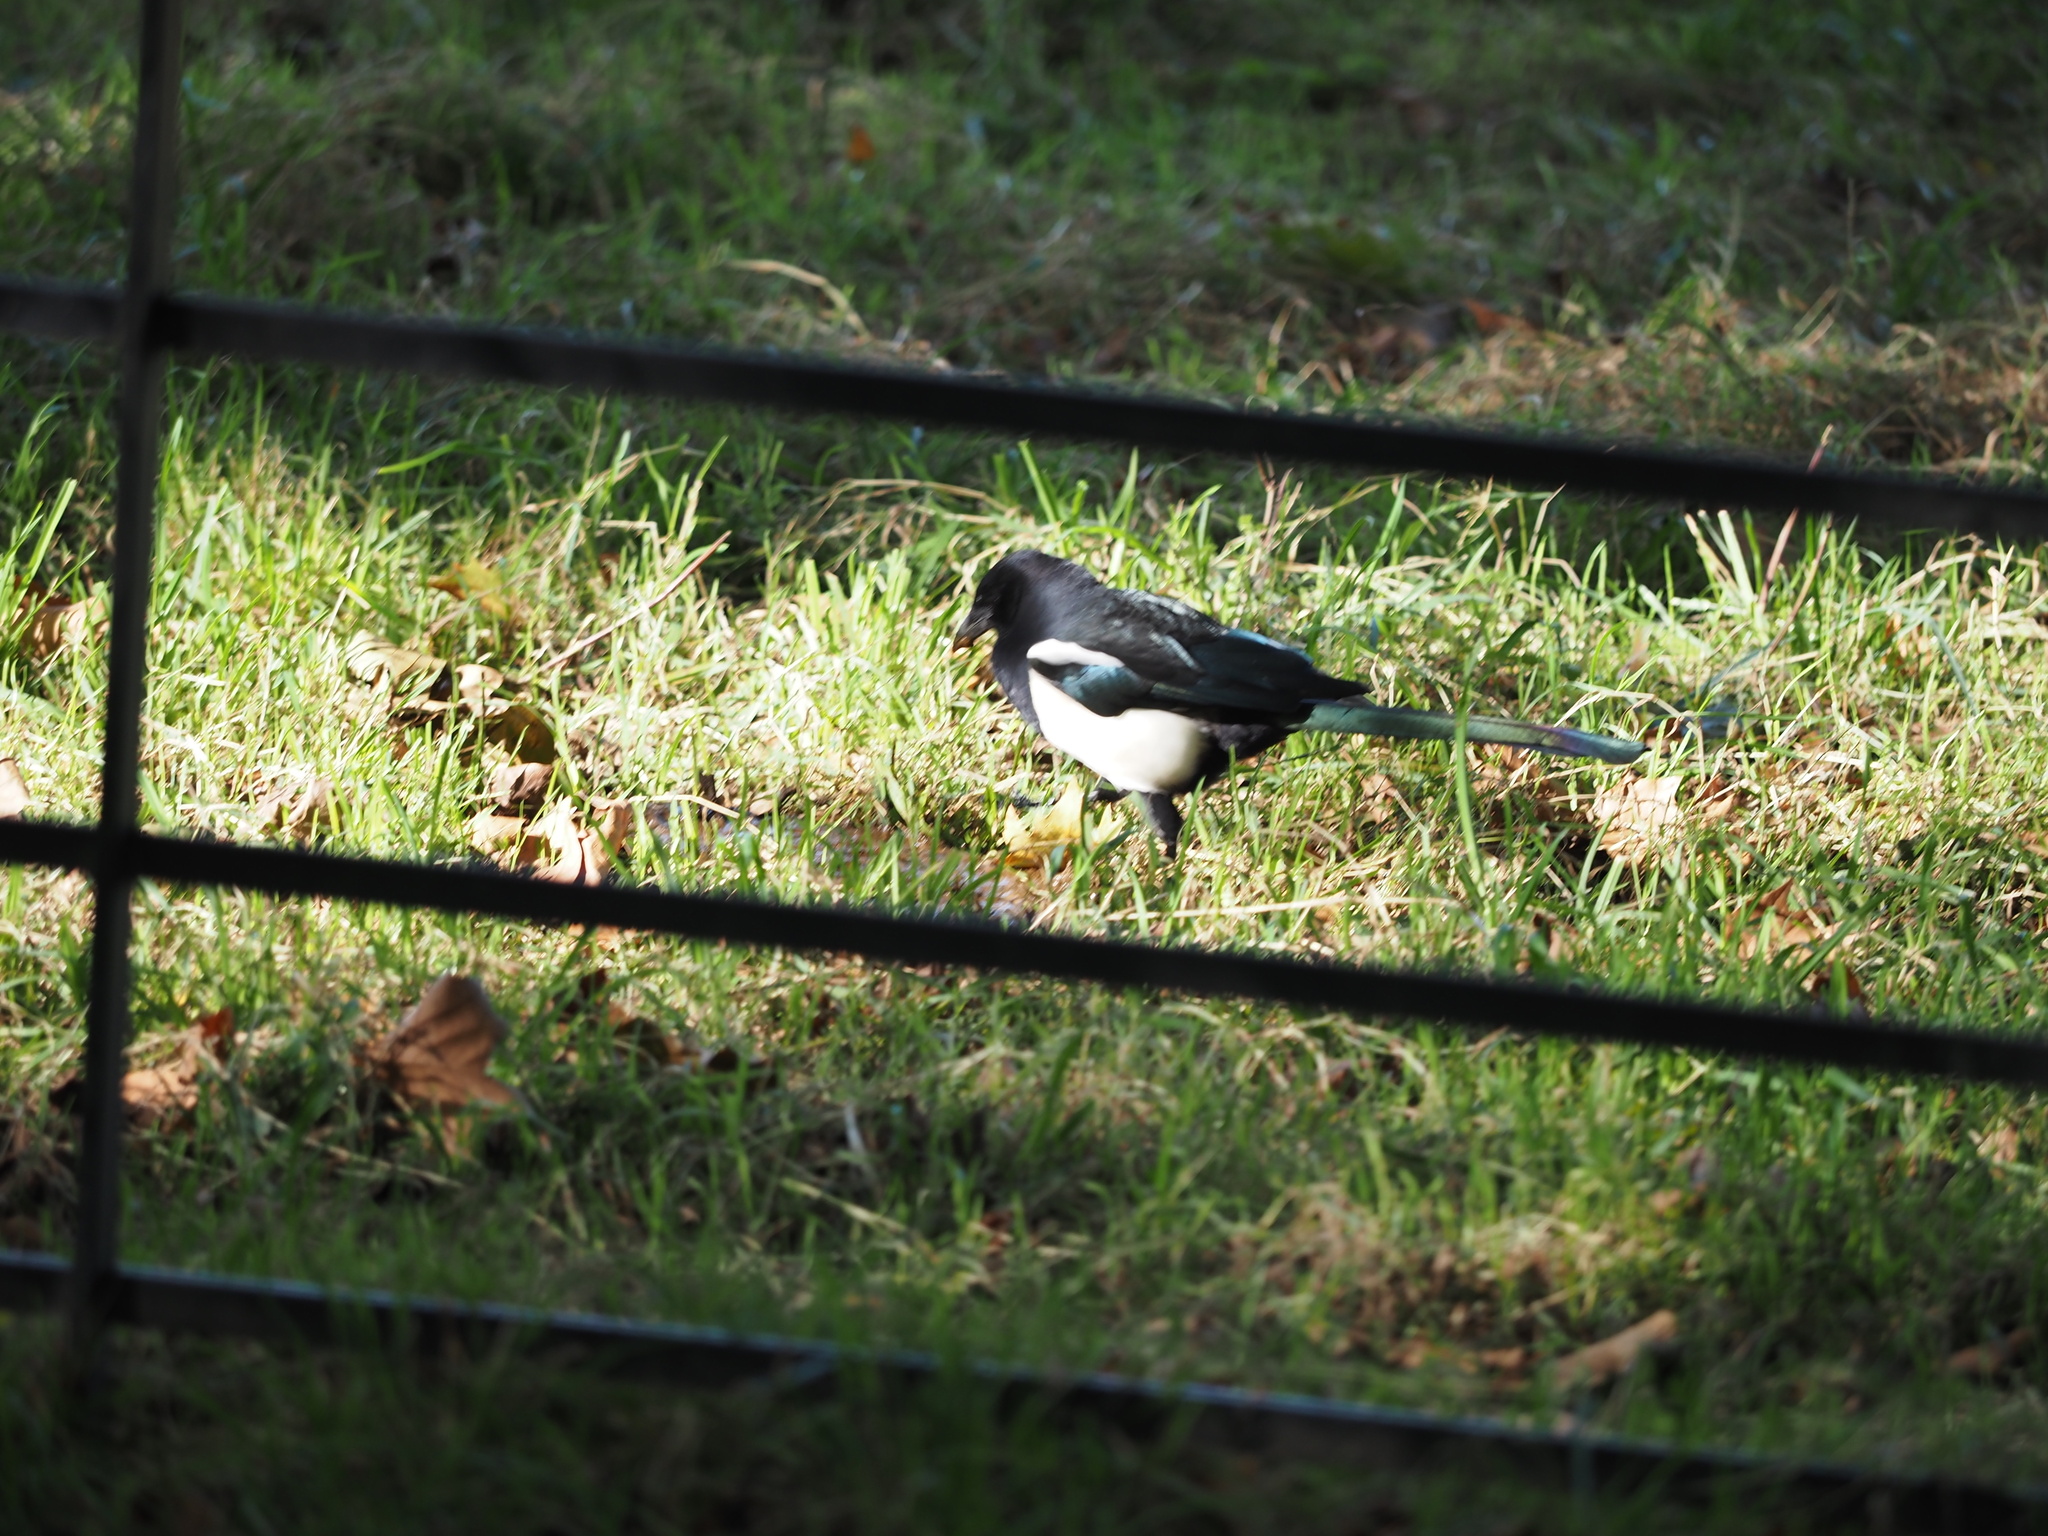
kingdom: Animalia
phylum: Chordata
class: Aves
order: Passeriformes
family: Corvidae
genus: Pica
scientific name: Pica pica
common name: Eurasian magpie
